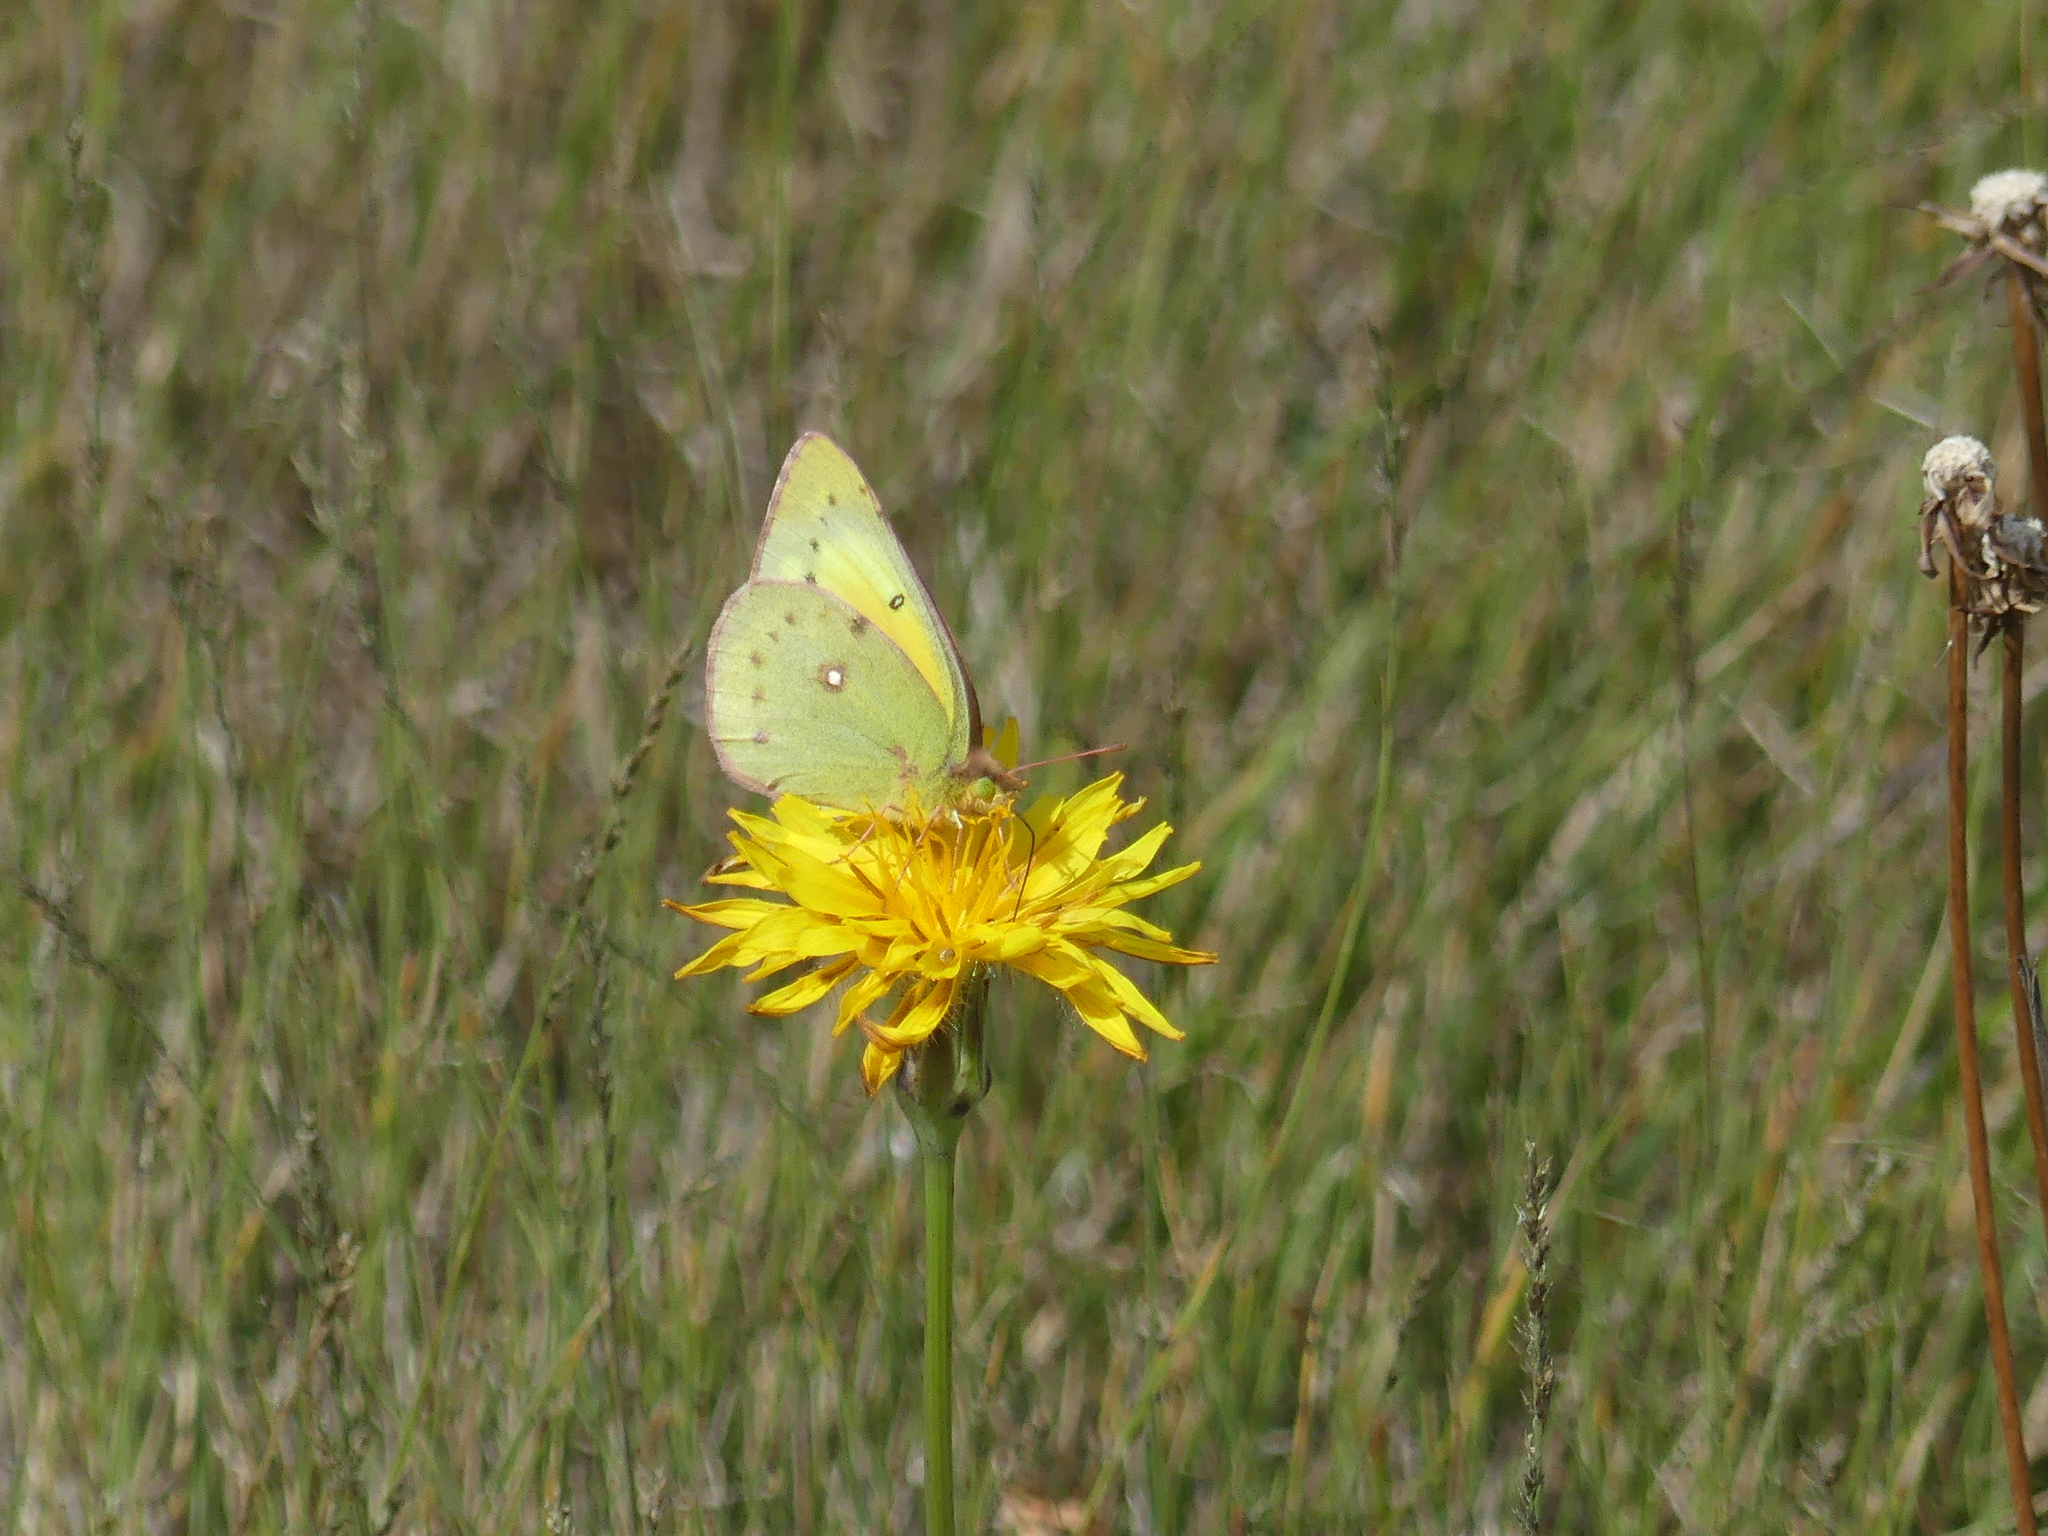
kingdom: Animalia
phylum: Arthropoda
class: Insecta
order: Lepidoptera
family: Pieridae
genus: Colias
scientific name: Colias philodice
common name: Clouded sulphur
